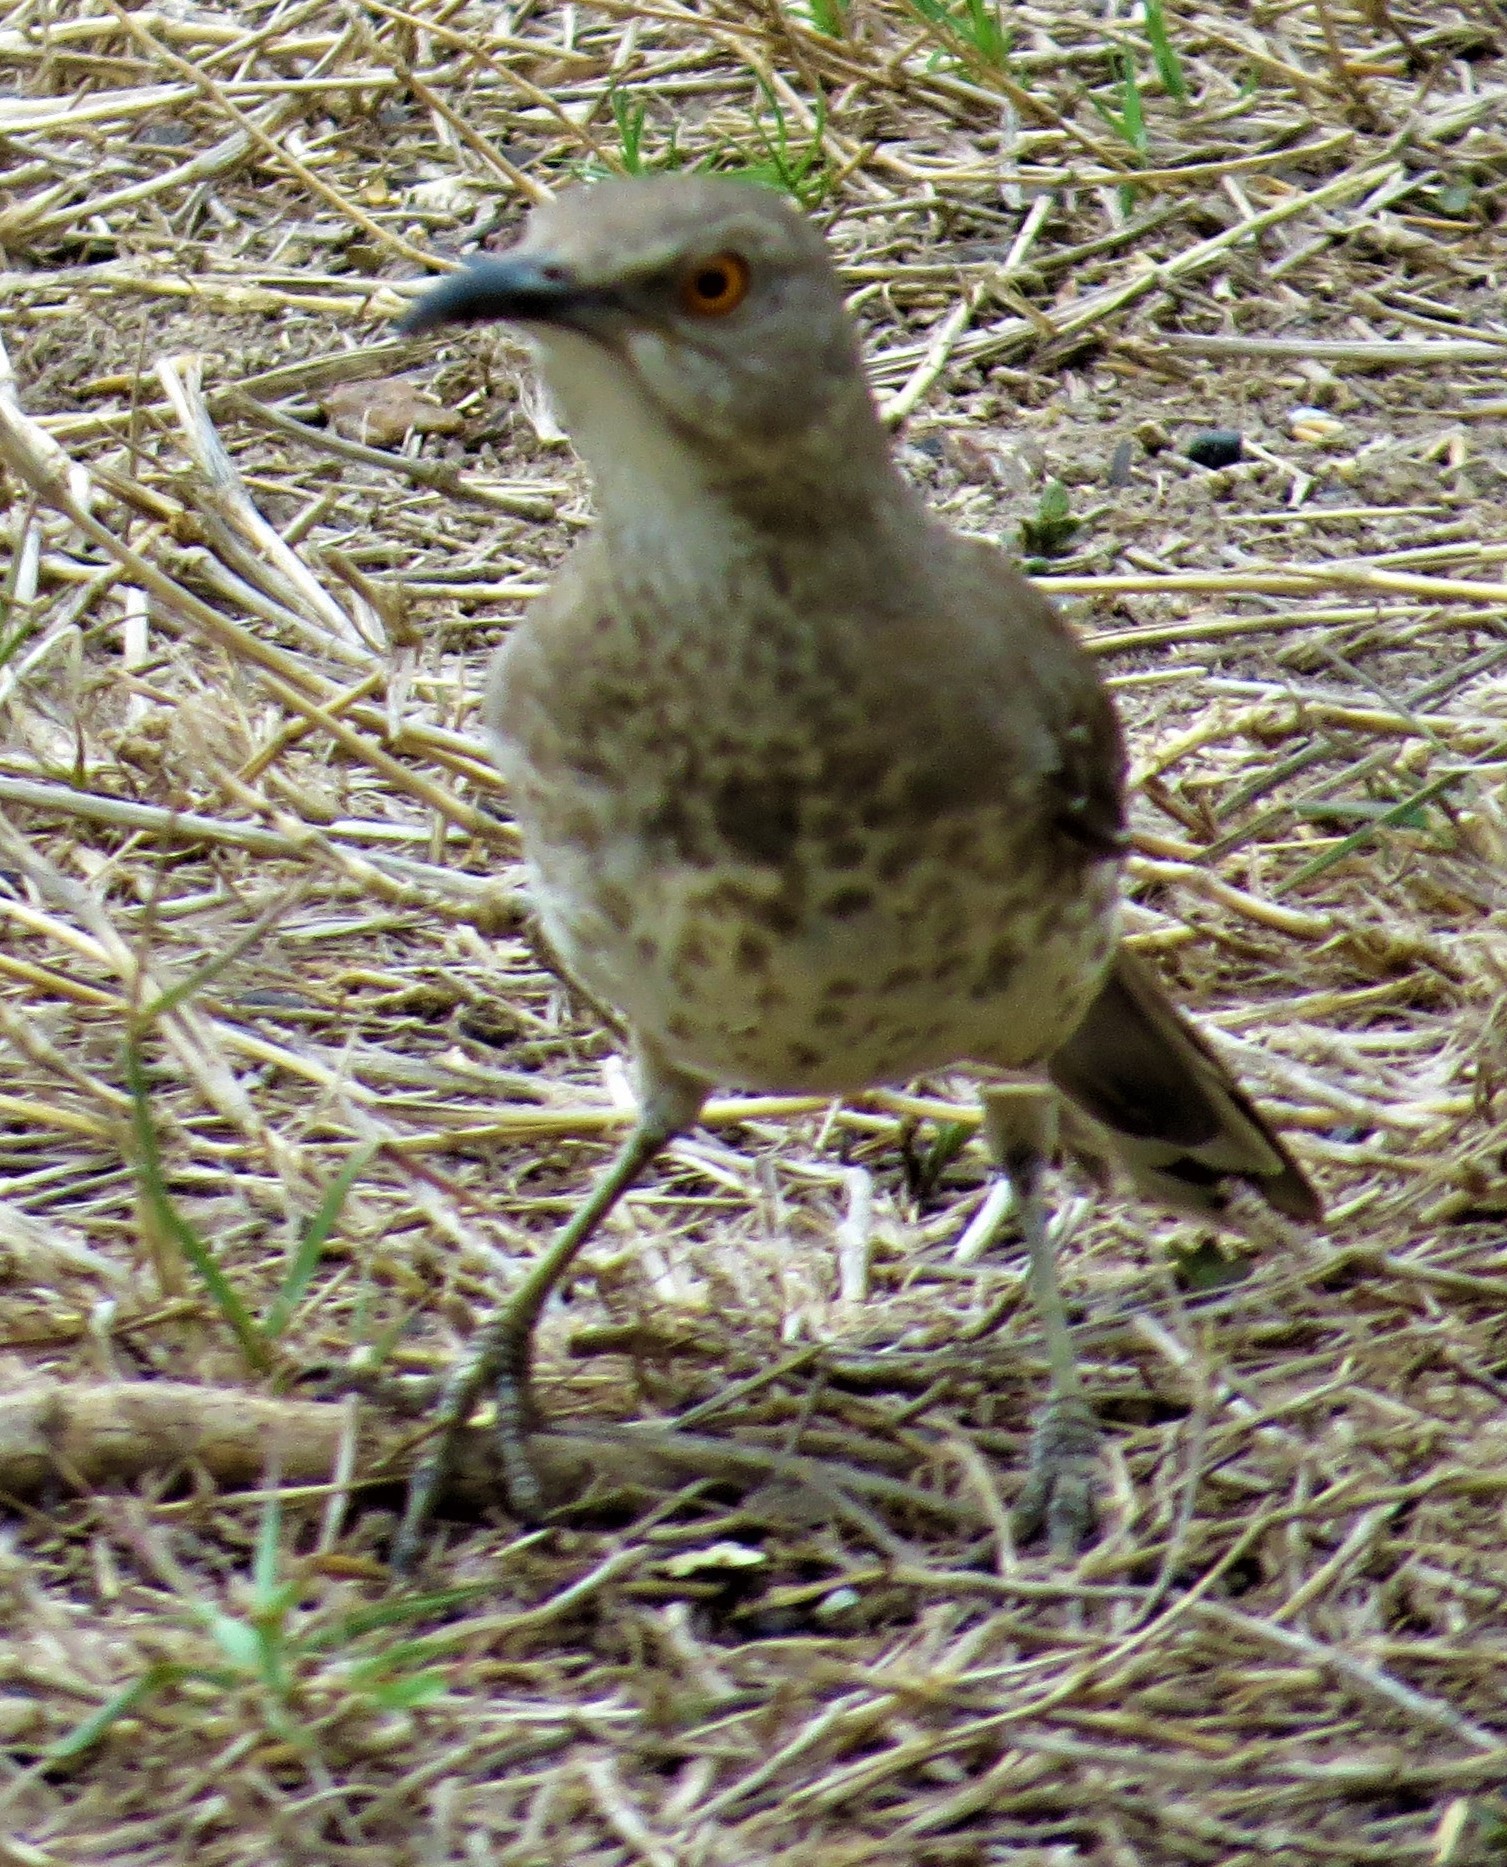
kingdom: Animalia
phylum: Chordata
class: Aves
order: Passeriformes
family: Mimidae
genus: Toxostoma
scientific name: Toxostoma curvirostre
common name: Curve-billed thrasher
